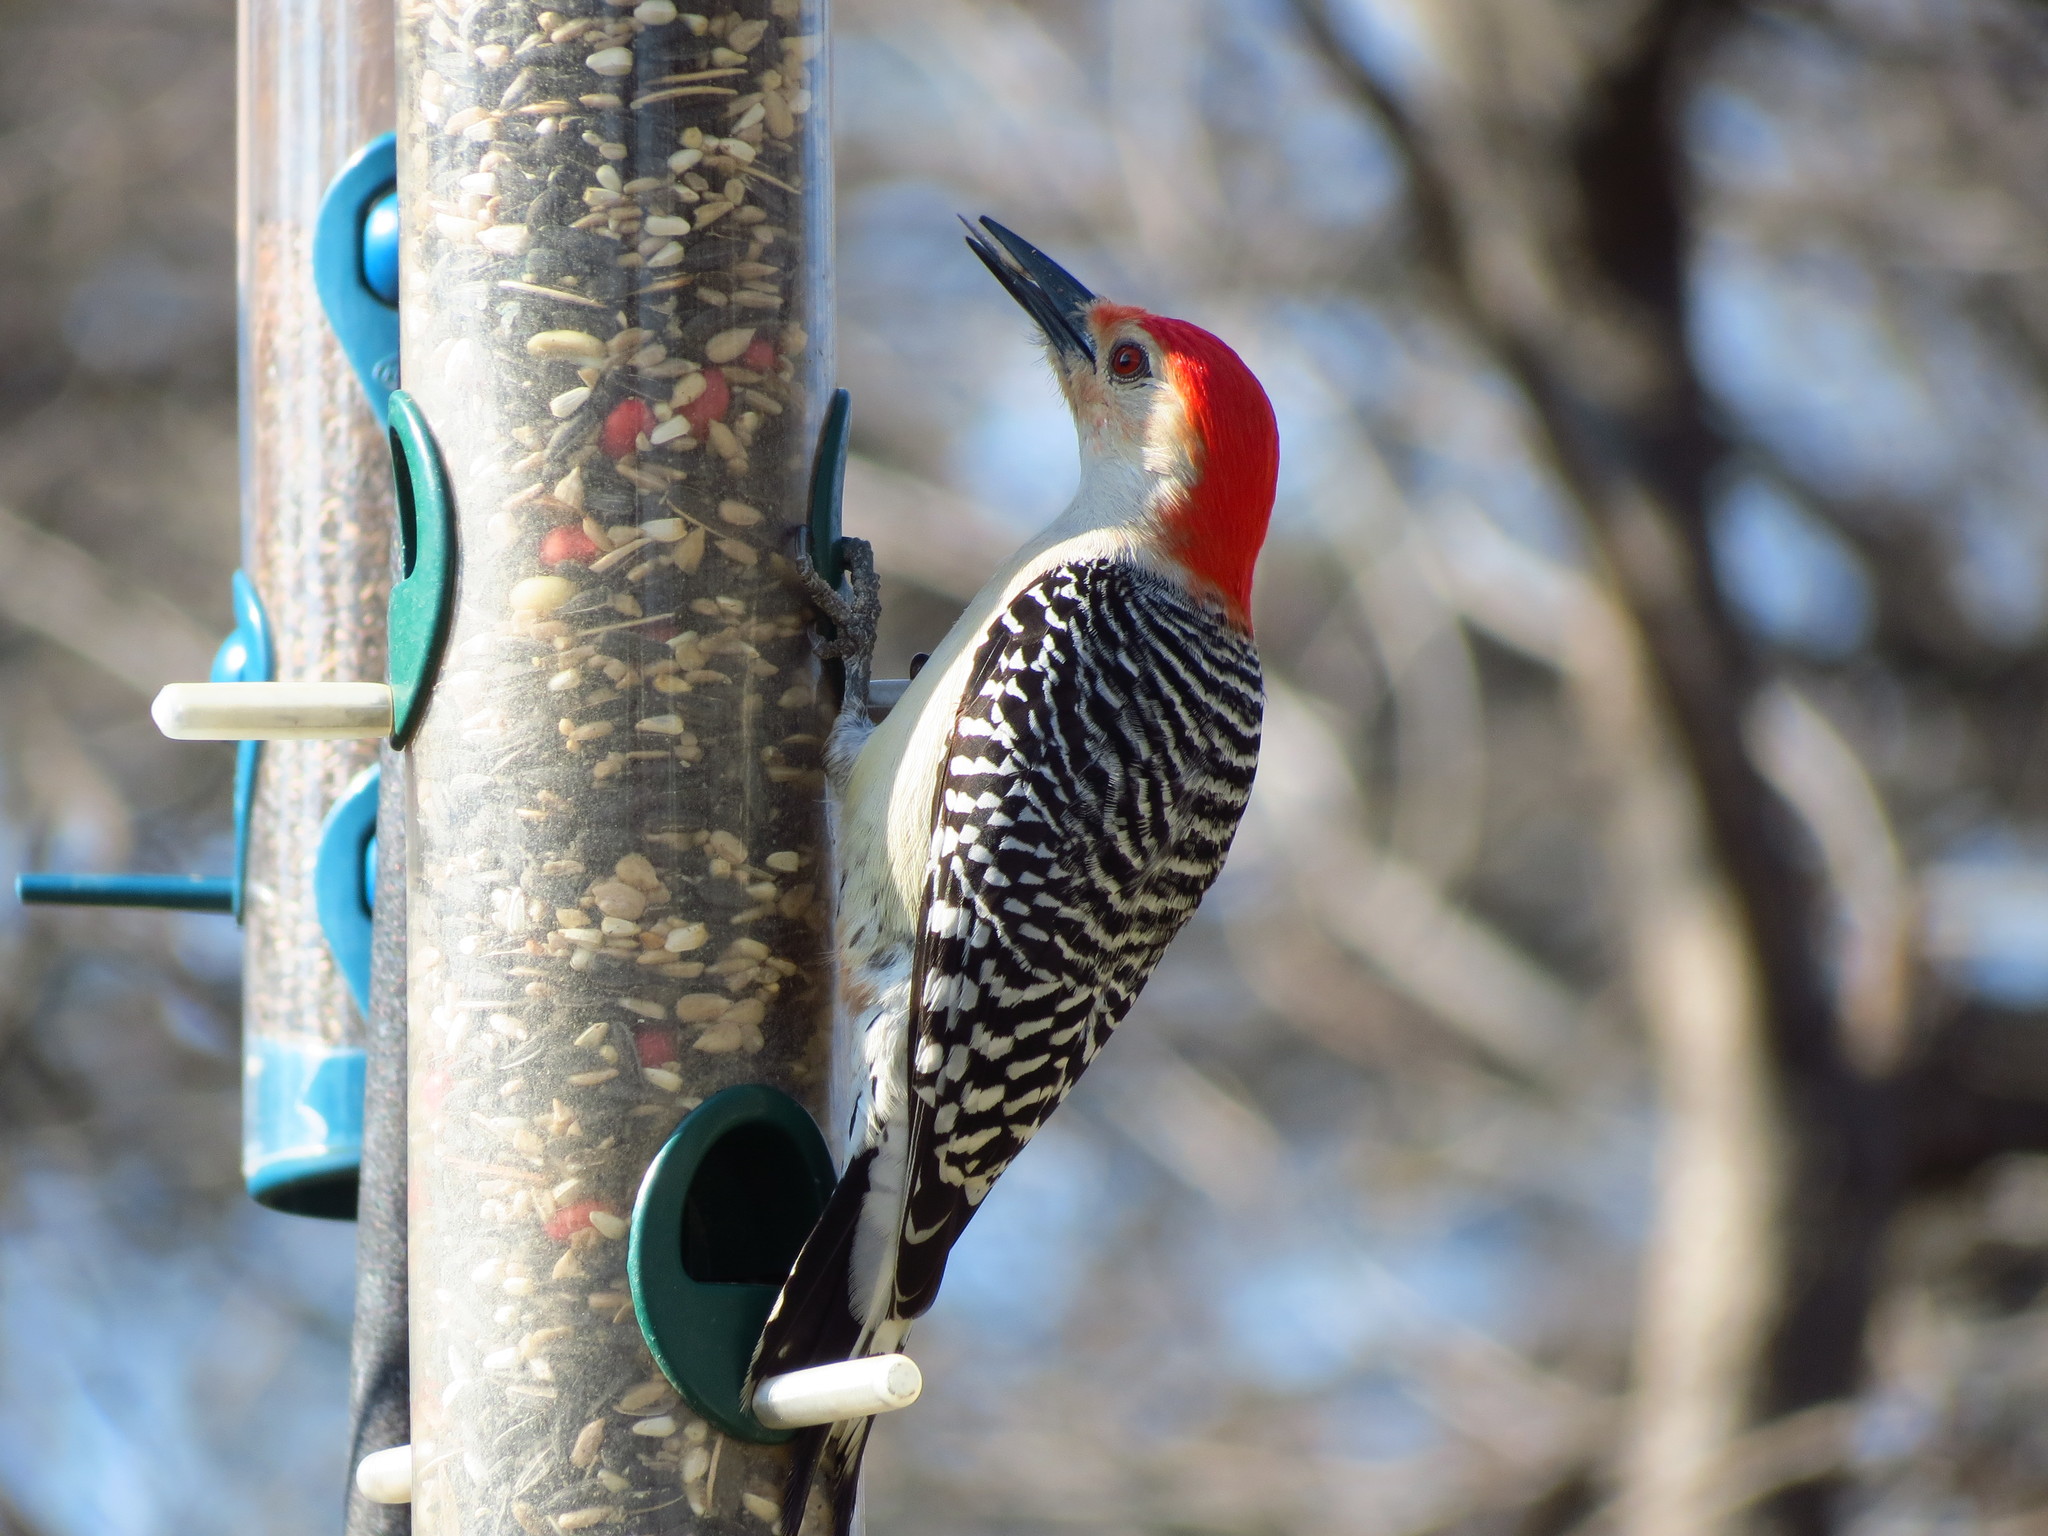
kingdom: Animalia
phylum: Chordata
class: Aves
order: Piciformes
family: Picidae
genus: Melanerpes
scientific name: Melanerpes carolinus
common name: Red-bellied woodpecker
